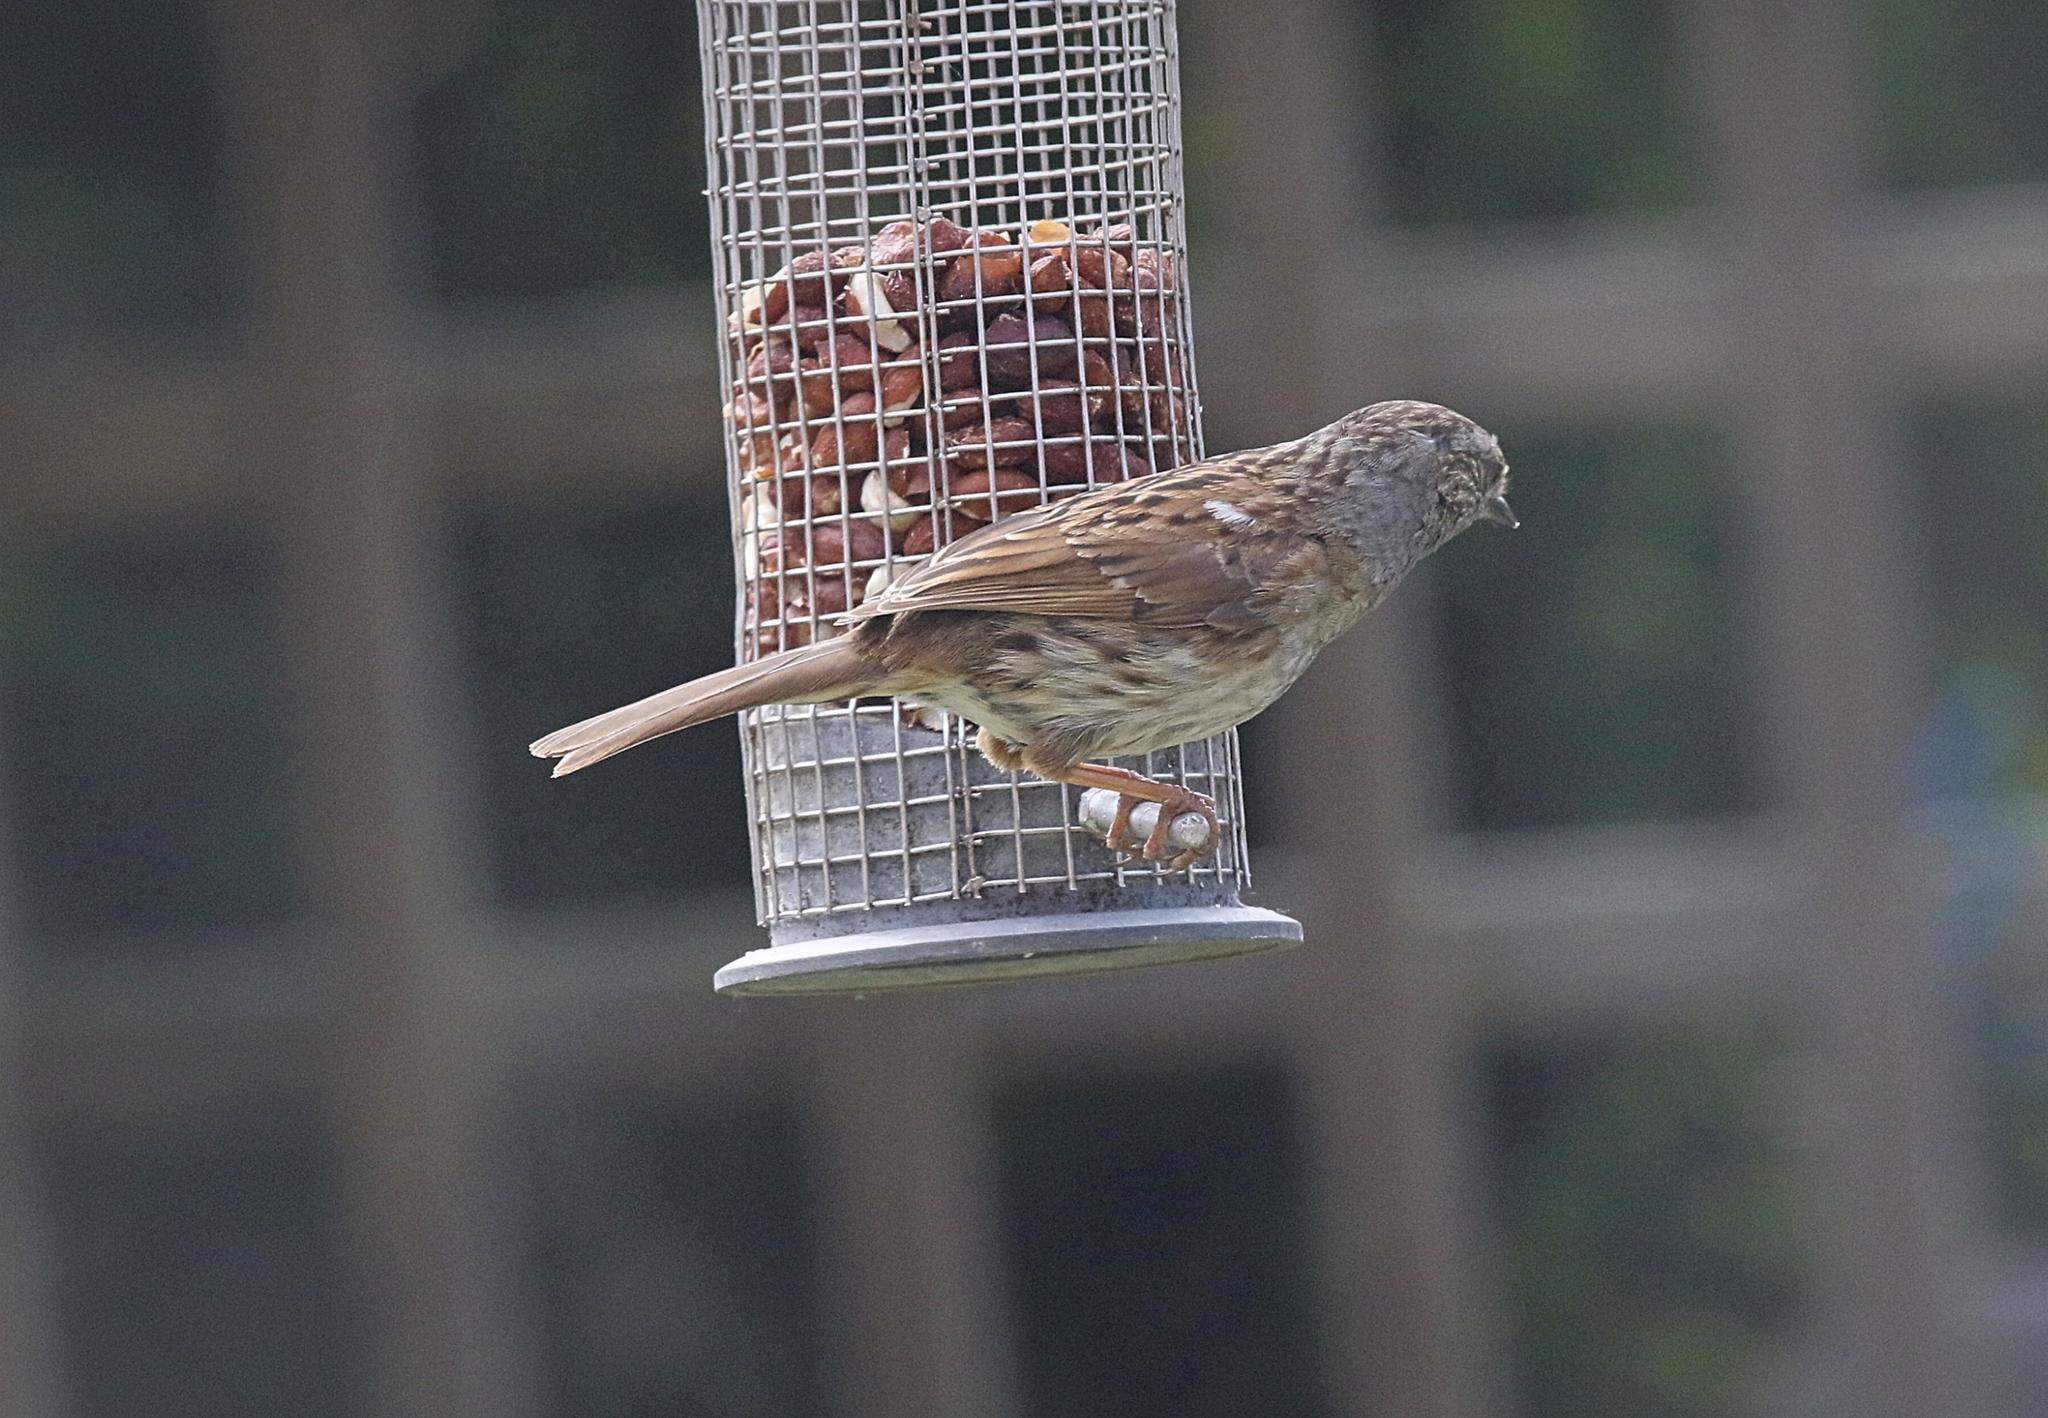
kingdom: Animalia
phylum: Chordata
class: Aves
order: Passeriformes
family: Prunellidae
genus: Prunella
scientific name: Prunella modularis
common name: Dunnock
